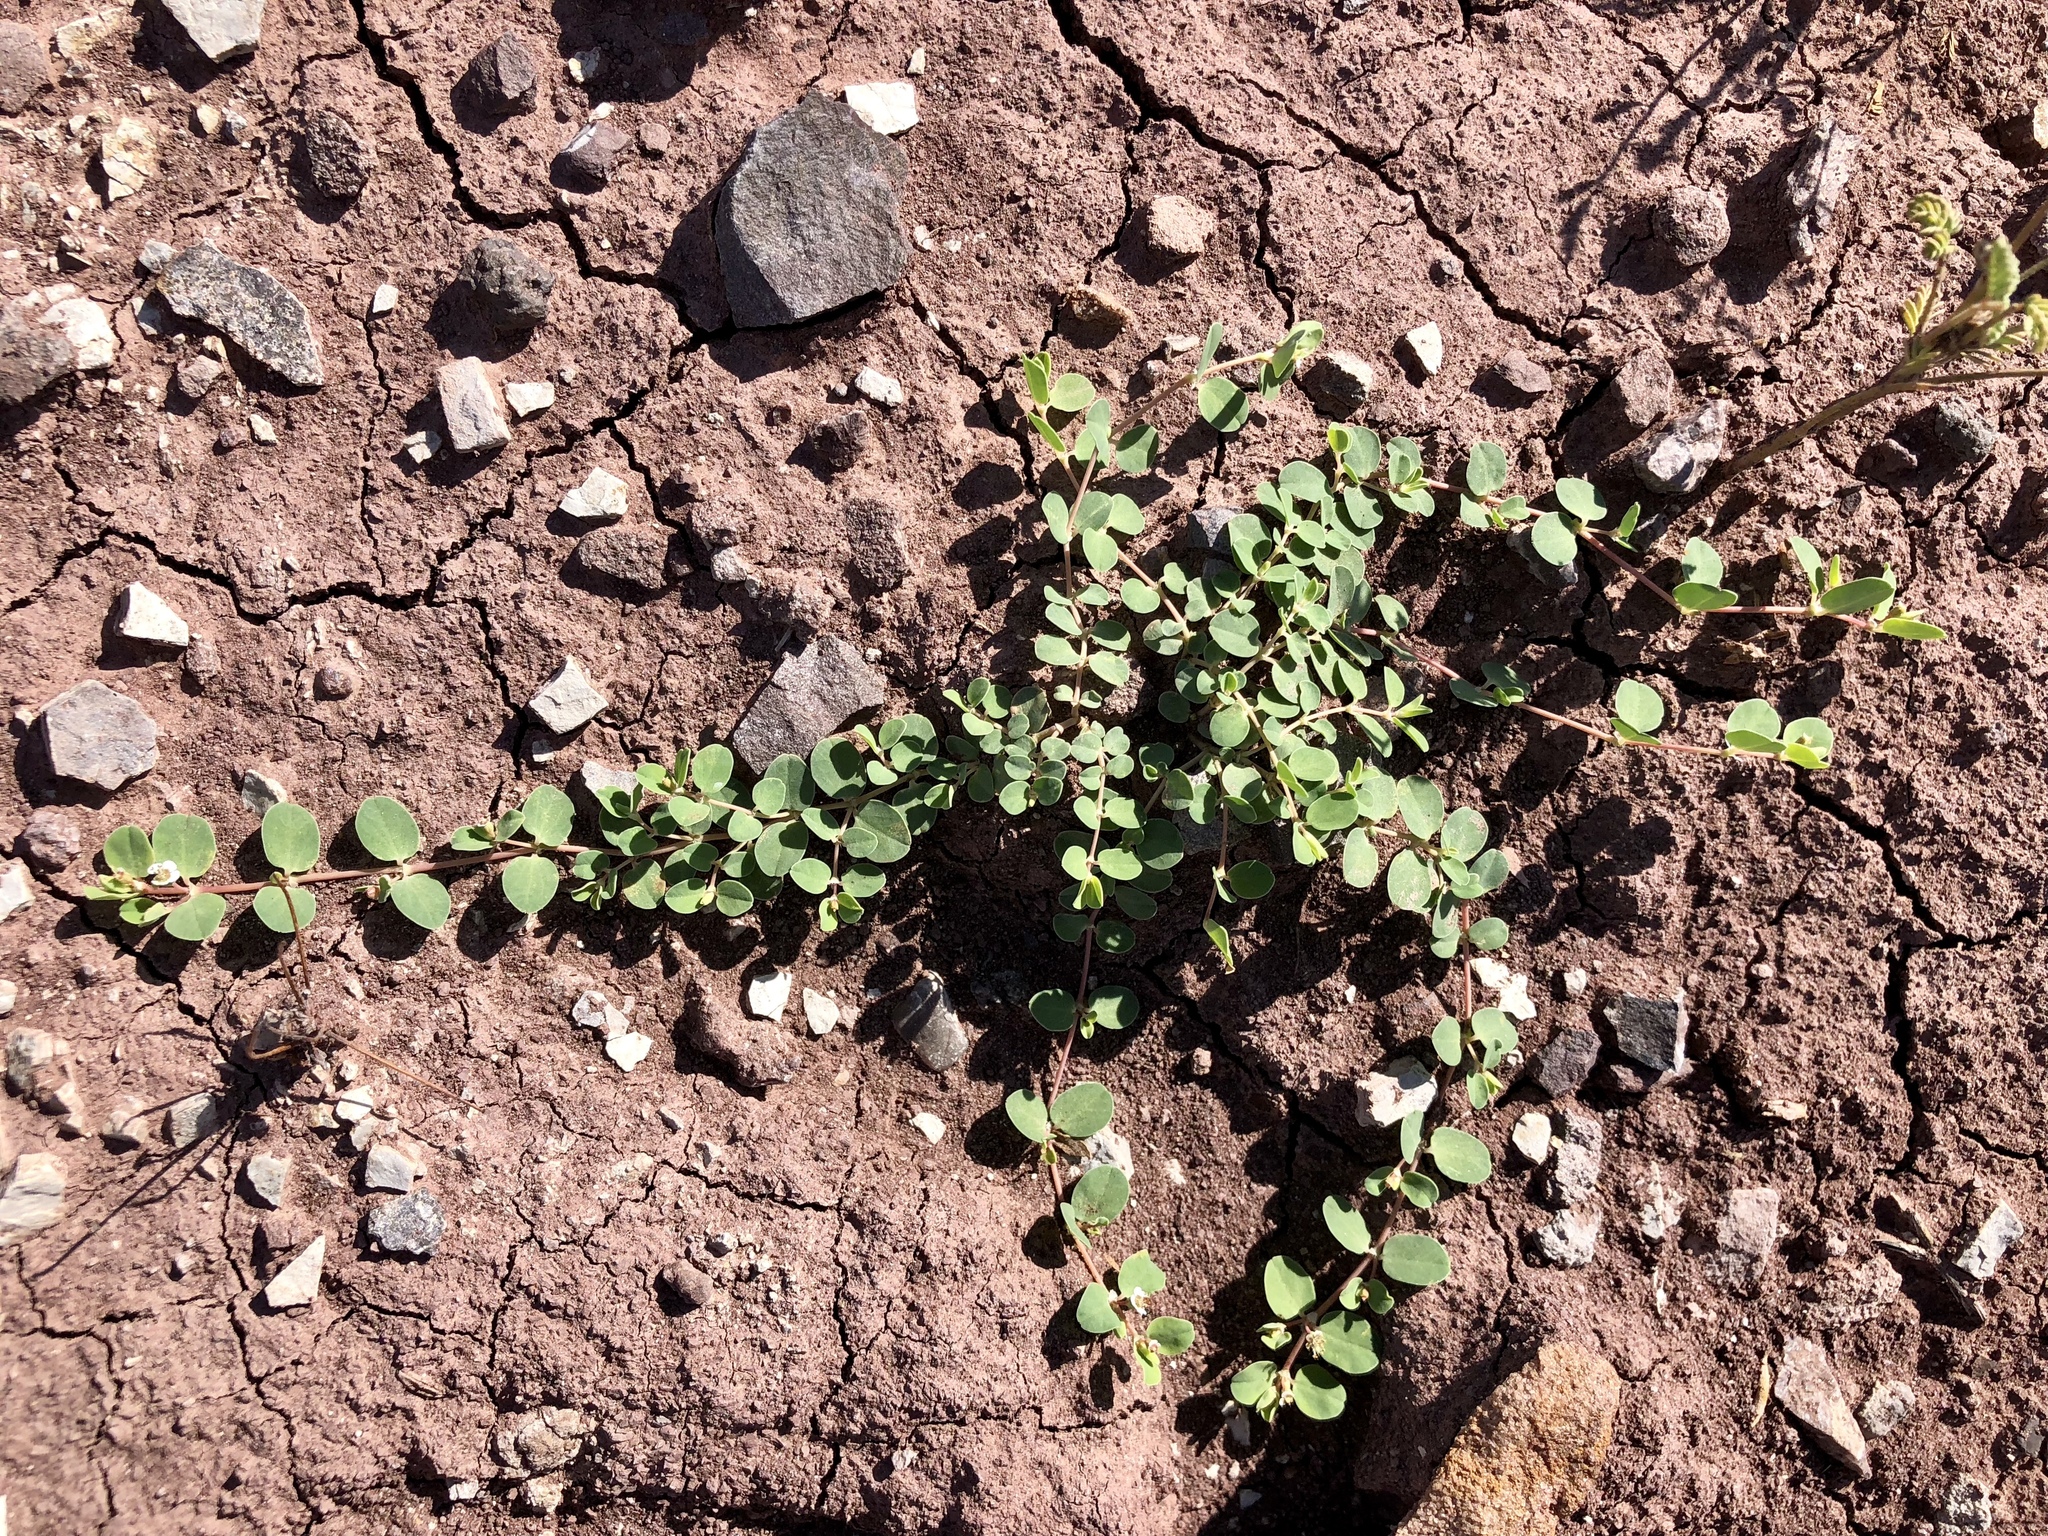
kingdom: Plantae
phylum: Tracheophyta
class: Magnoliopsida
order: Malpighiales
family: Euphorbiaceae
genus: Euphorbia
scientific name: Euphorbia albomarginata
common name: Whitemargin sandmat
